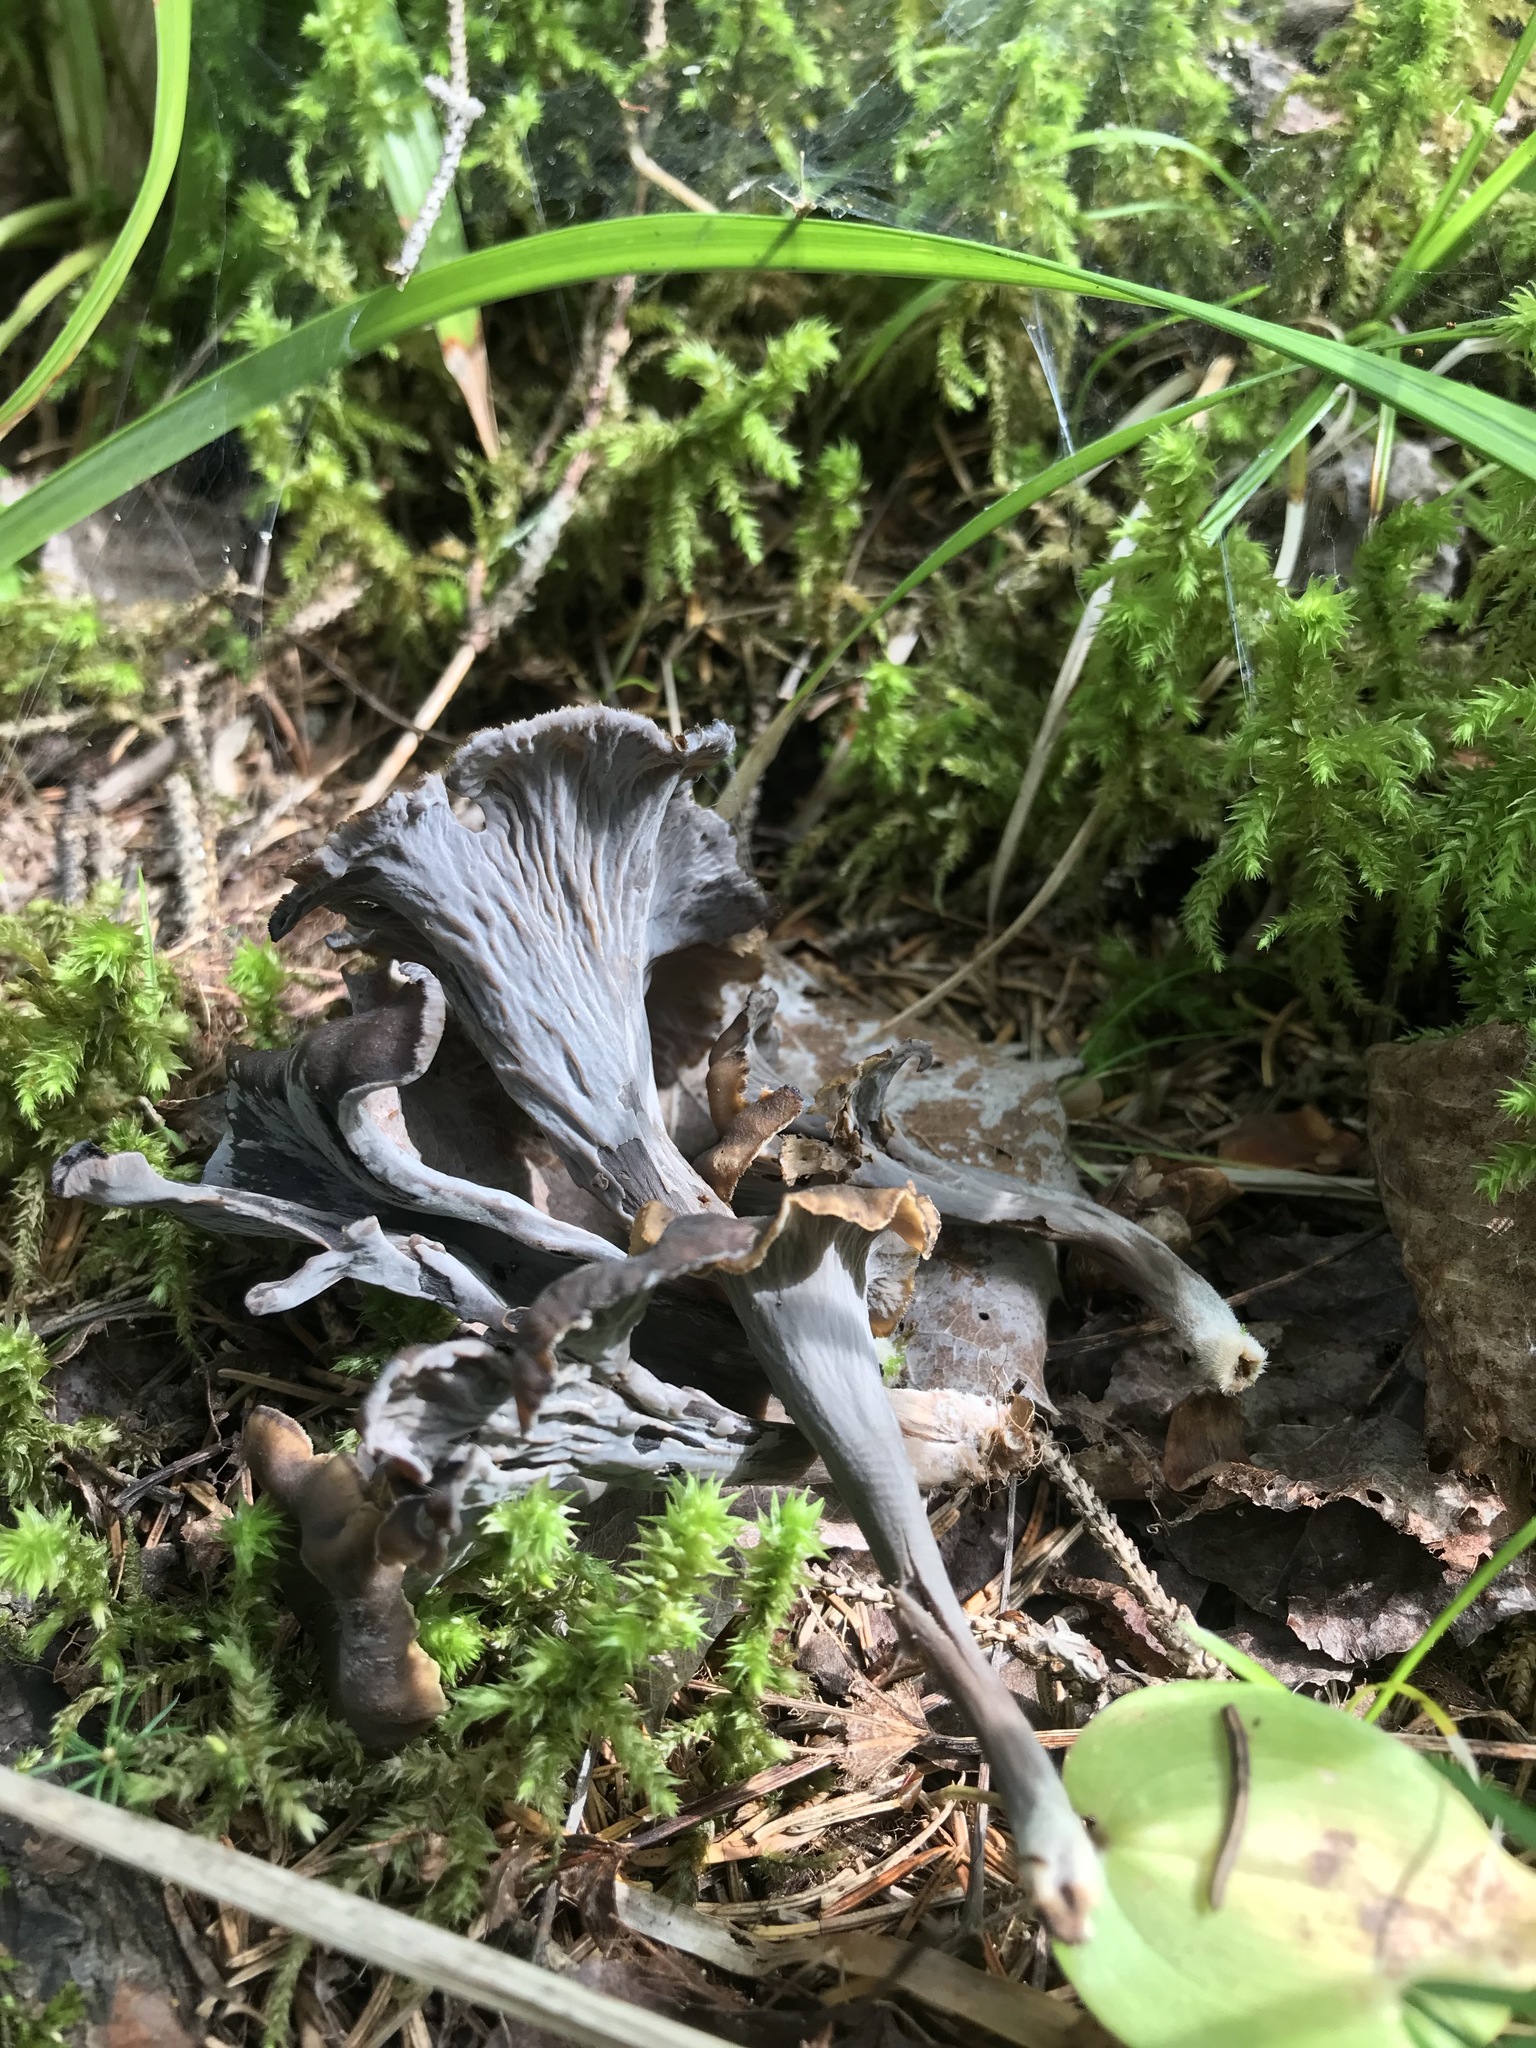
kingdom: Fungi
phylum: Basidiomycota
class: Agaricomycetes
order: Cantharellales
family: Hydnaceae
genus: Craterellus
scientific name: Craterellus cornucopioides
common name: Horn of plenty
